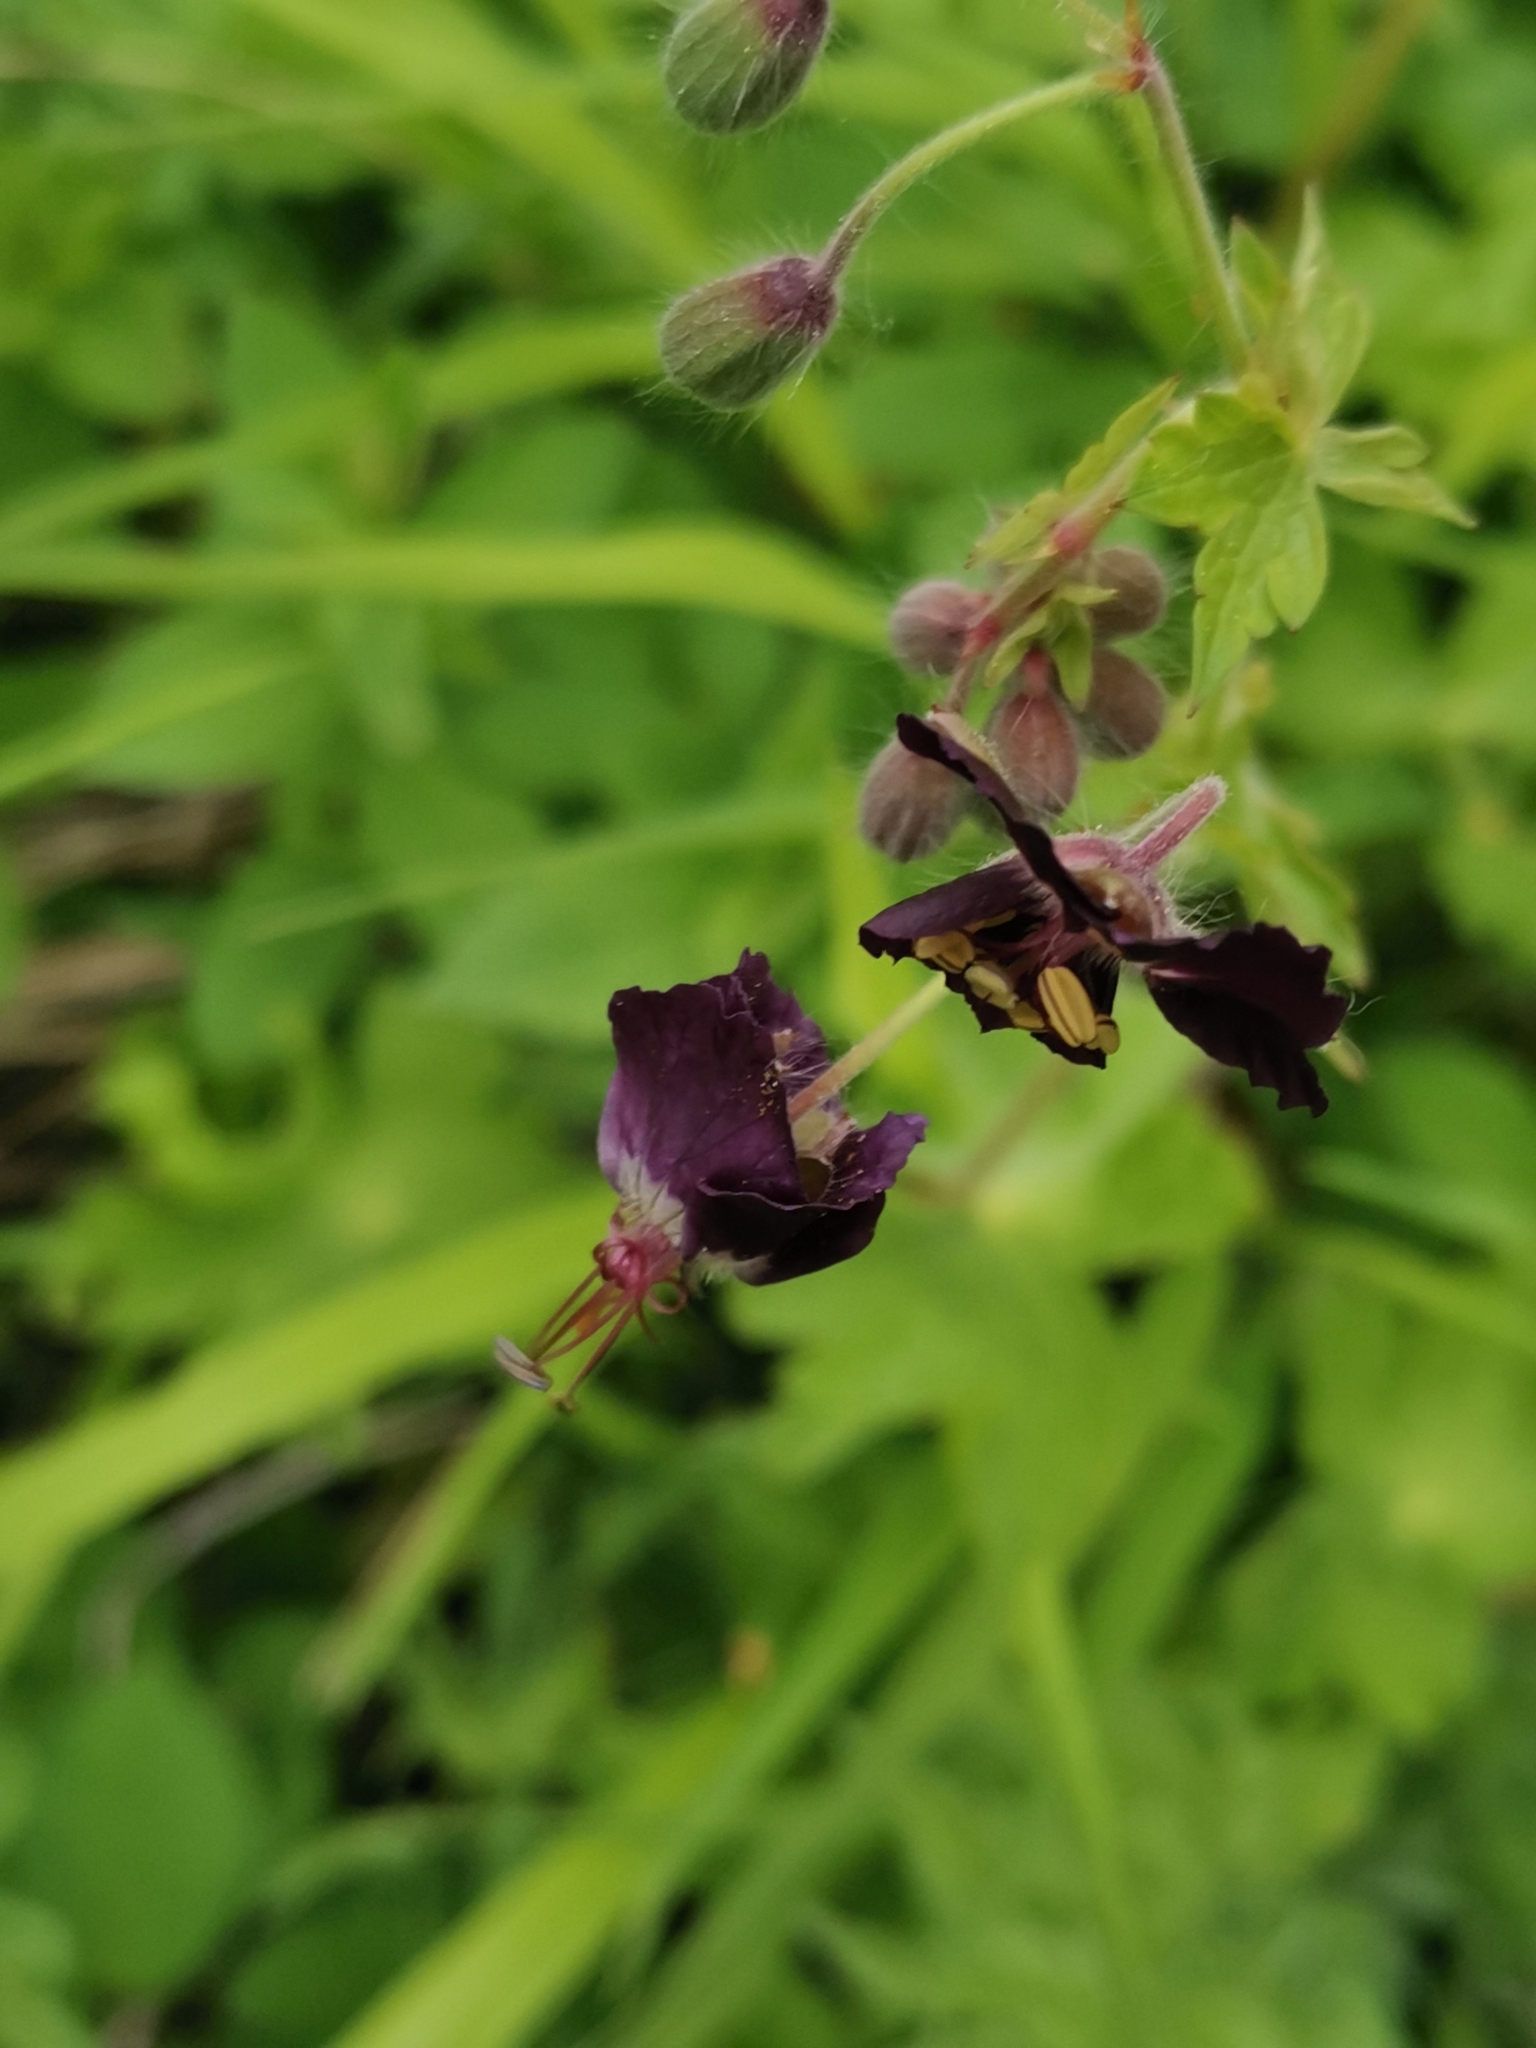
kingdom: Plantae
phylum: Tracheophyta
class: Magnoliopsida
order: Geraniales
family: Geraniaceae
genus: Geranium
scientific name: Geranium phaeum
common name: Dusky crane's-bill
